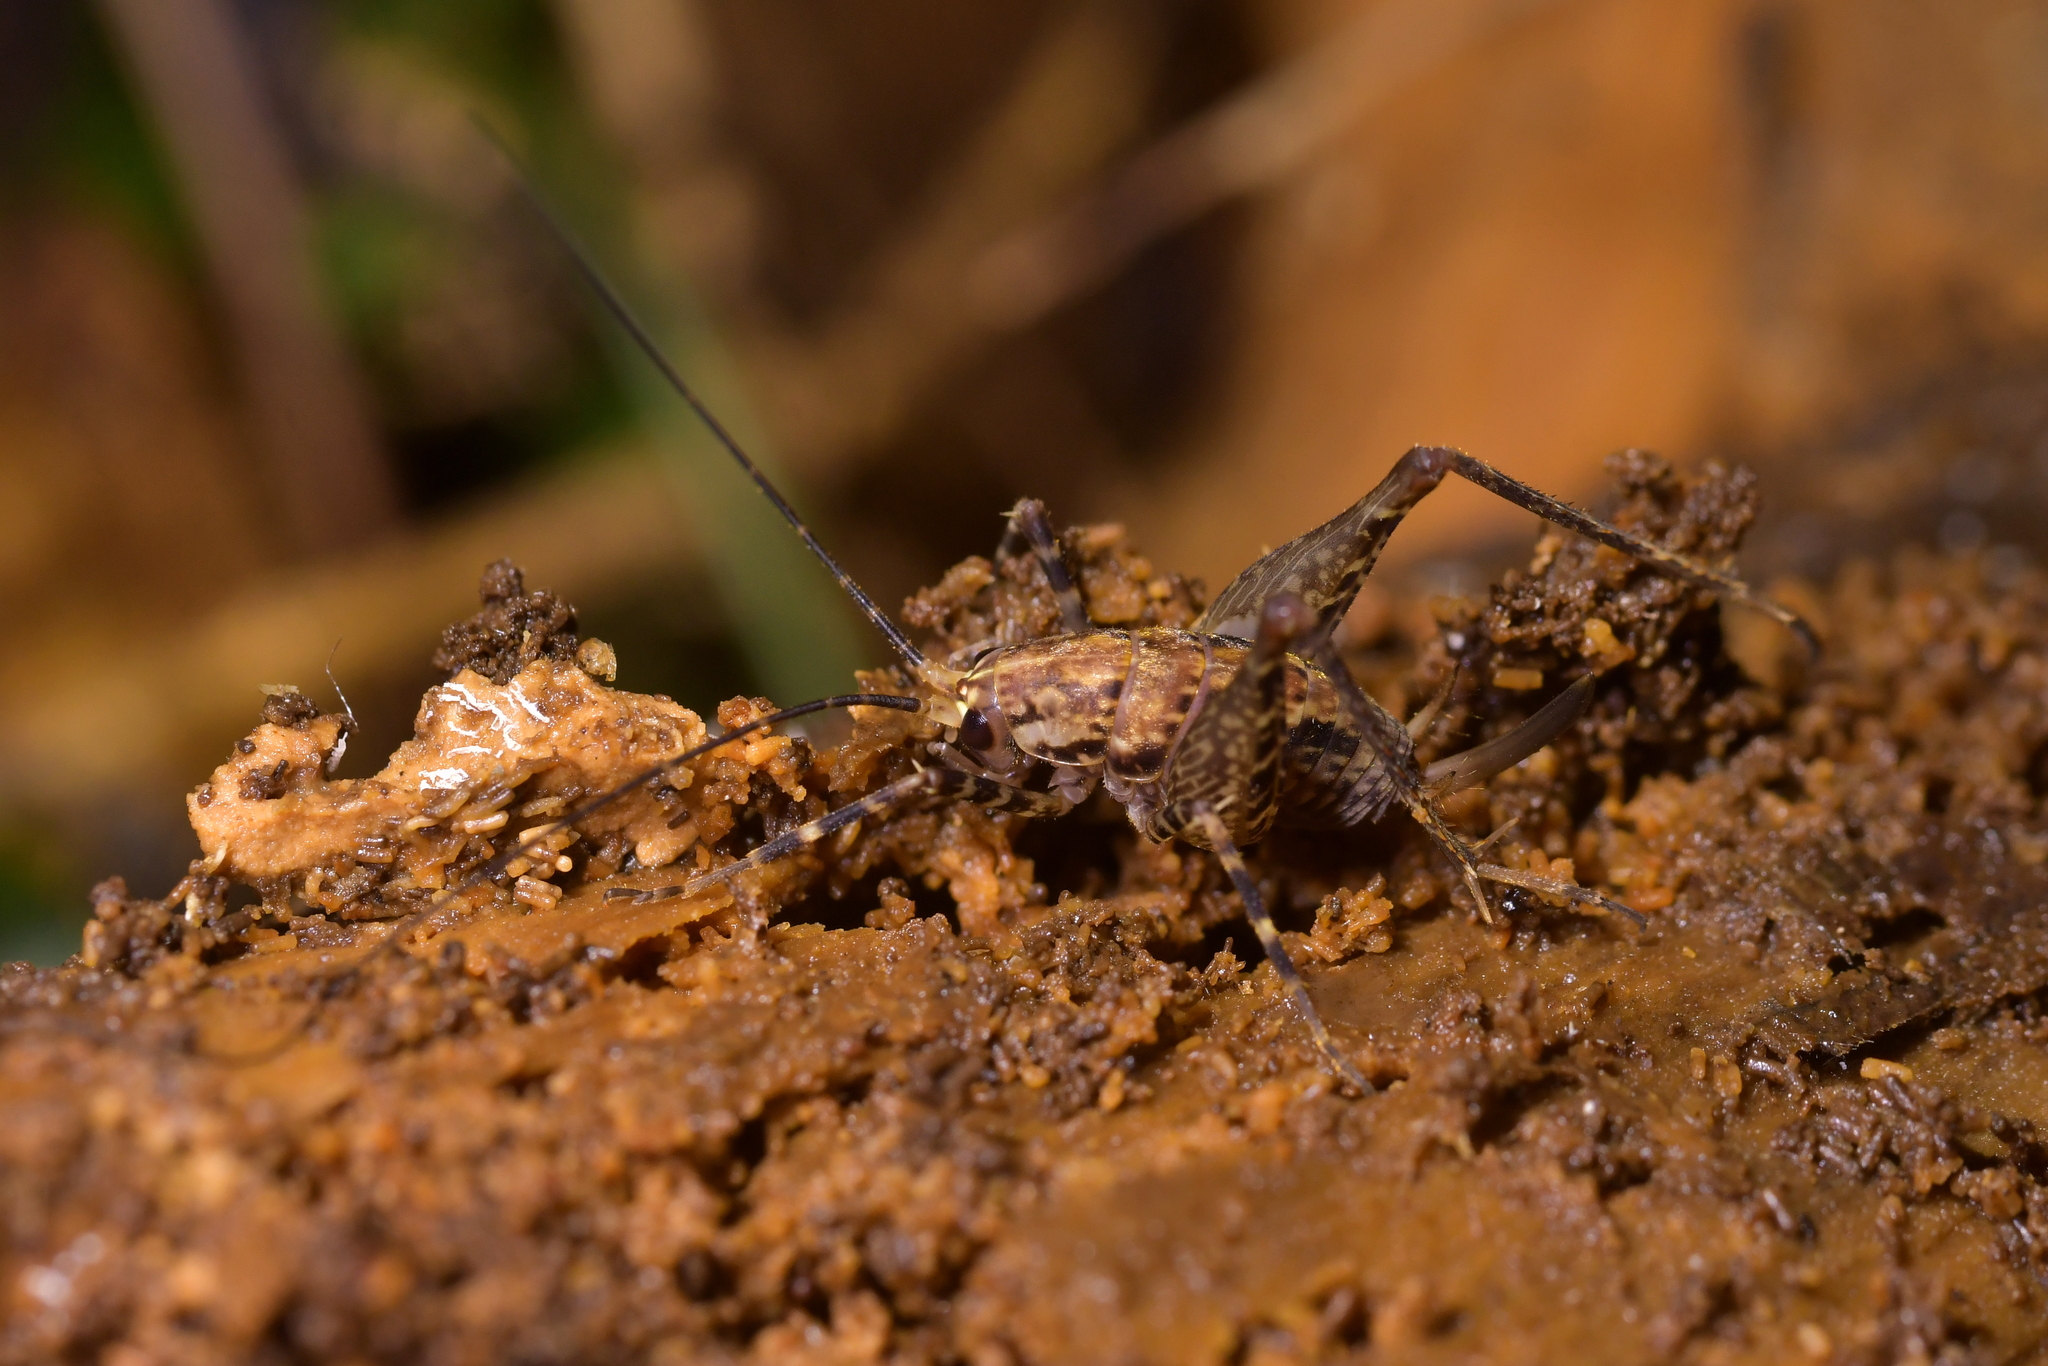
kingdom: Animalia
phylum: Arthropoda
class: Insecta
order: Orthoptera
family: Rhaphidophoridae
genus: Pleioplectron
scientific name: Pleioplectron hudsoni
